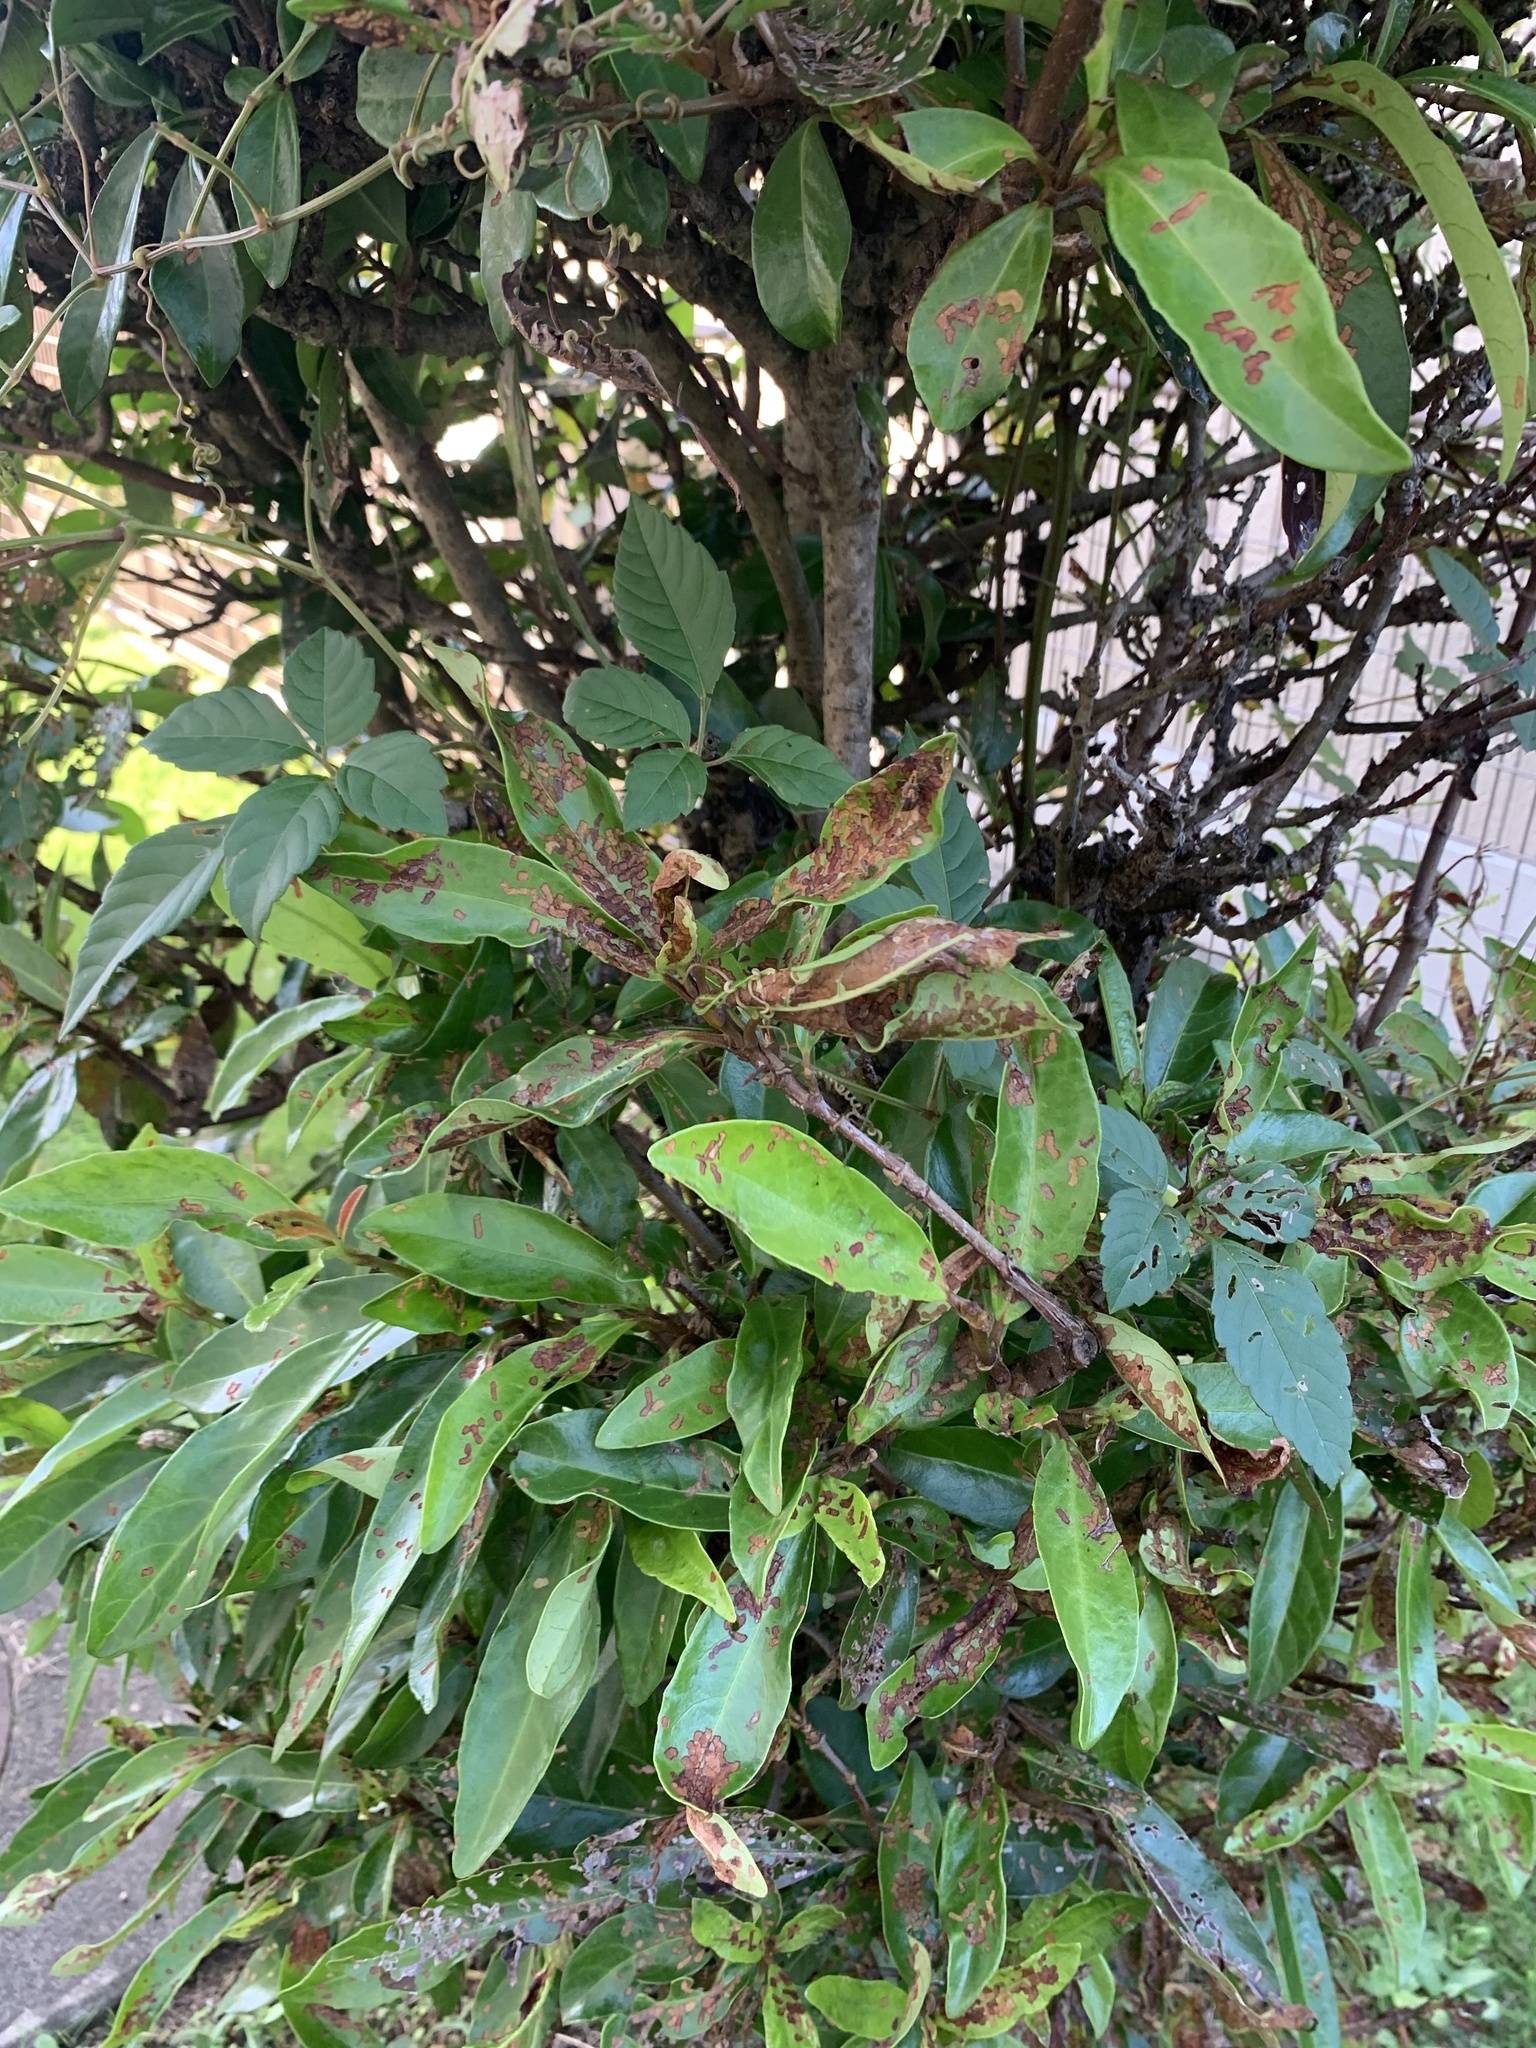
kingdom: Animalia
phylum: Arthropoda
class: Insecta
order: Coleoptera
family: Chrysomelidae
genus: Neogalerucella
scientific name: Neogalerucella calmariensis
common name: Black-margined loosestrife beetle
